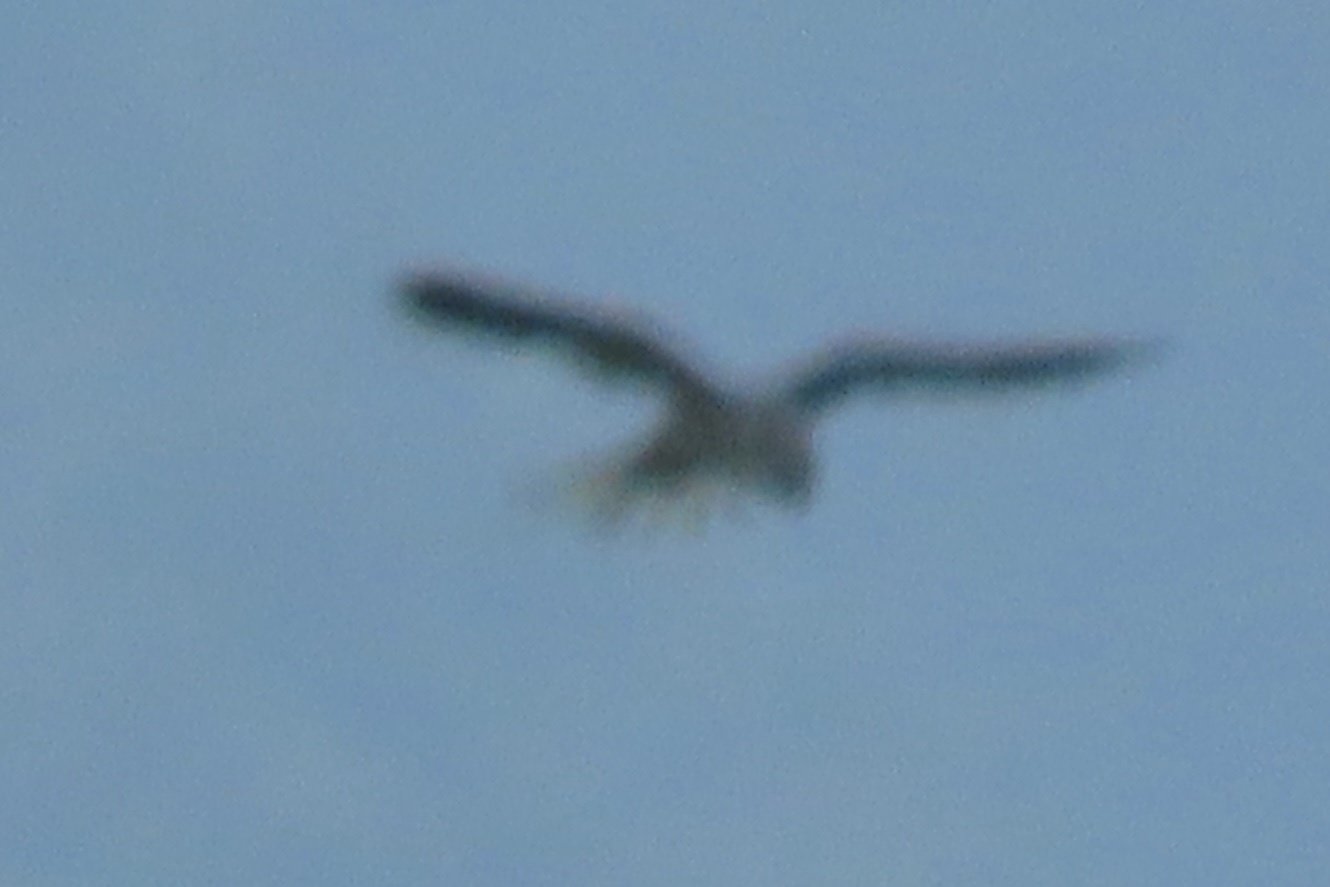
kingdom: Animalia
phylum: Chordata
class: Aves
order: Accipitriformes
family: Accipitridae
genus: Elanus
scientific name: Elanus leucurus
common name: White-tailed kite
